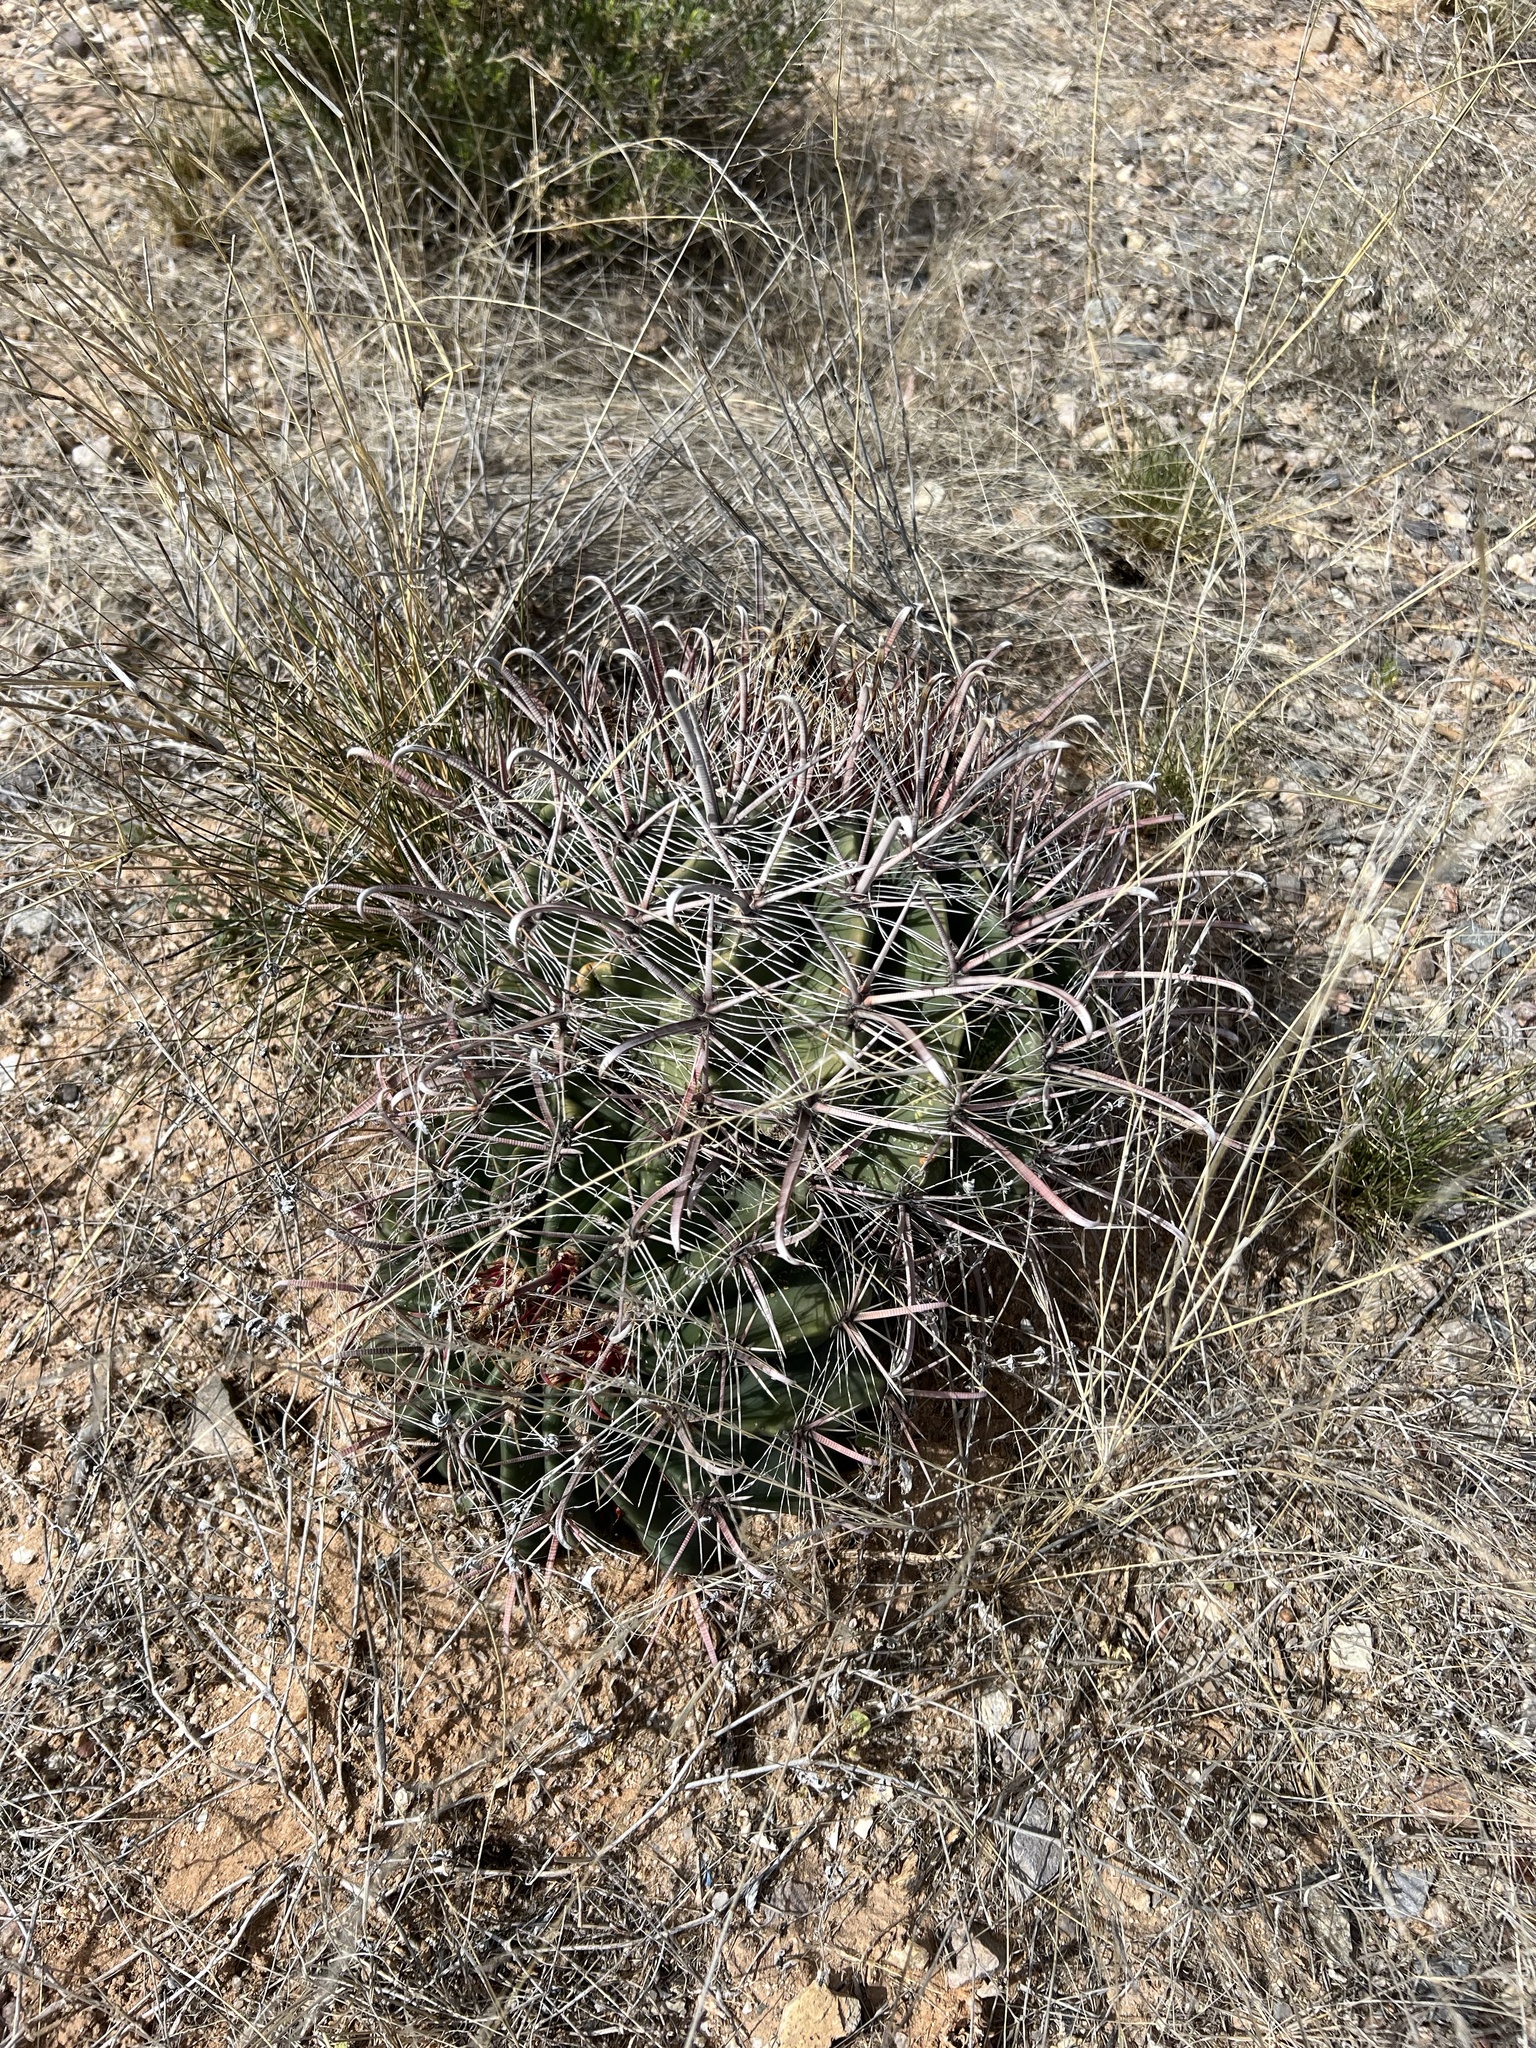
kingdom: Plantae
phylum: Tracheophyta
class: Magnoliopsida
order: Caryophyllales
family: Cactaceae
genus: Ferocactus
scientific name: Ferocactus wislizeni
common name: Candy barrel cactus
